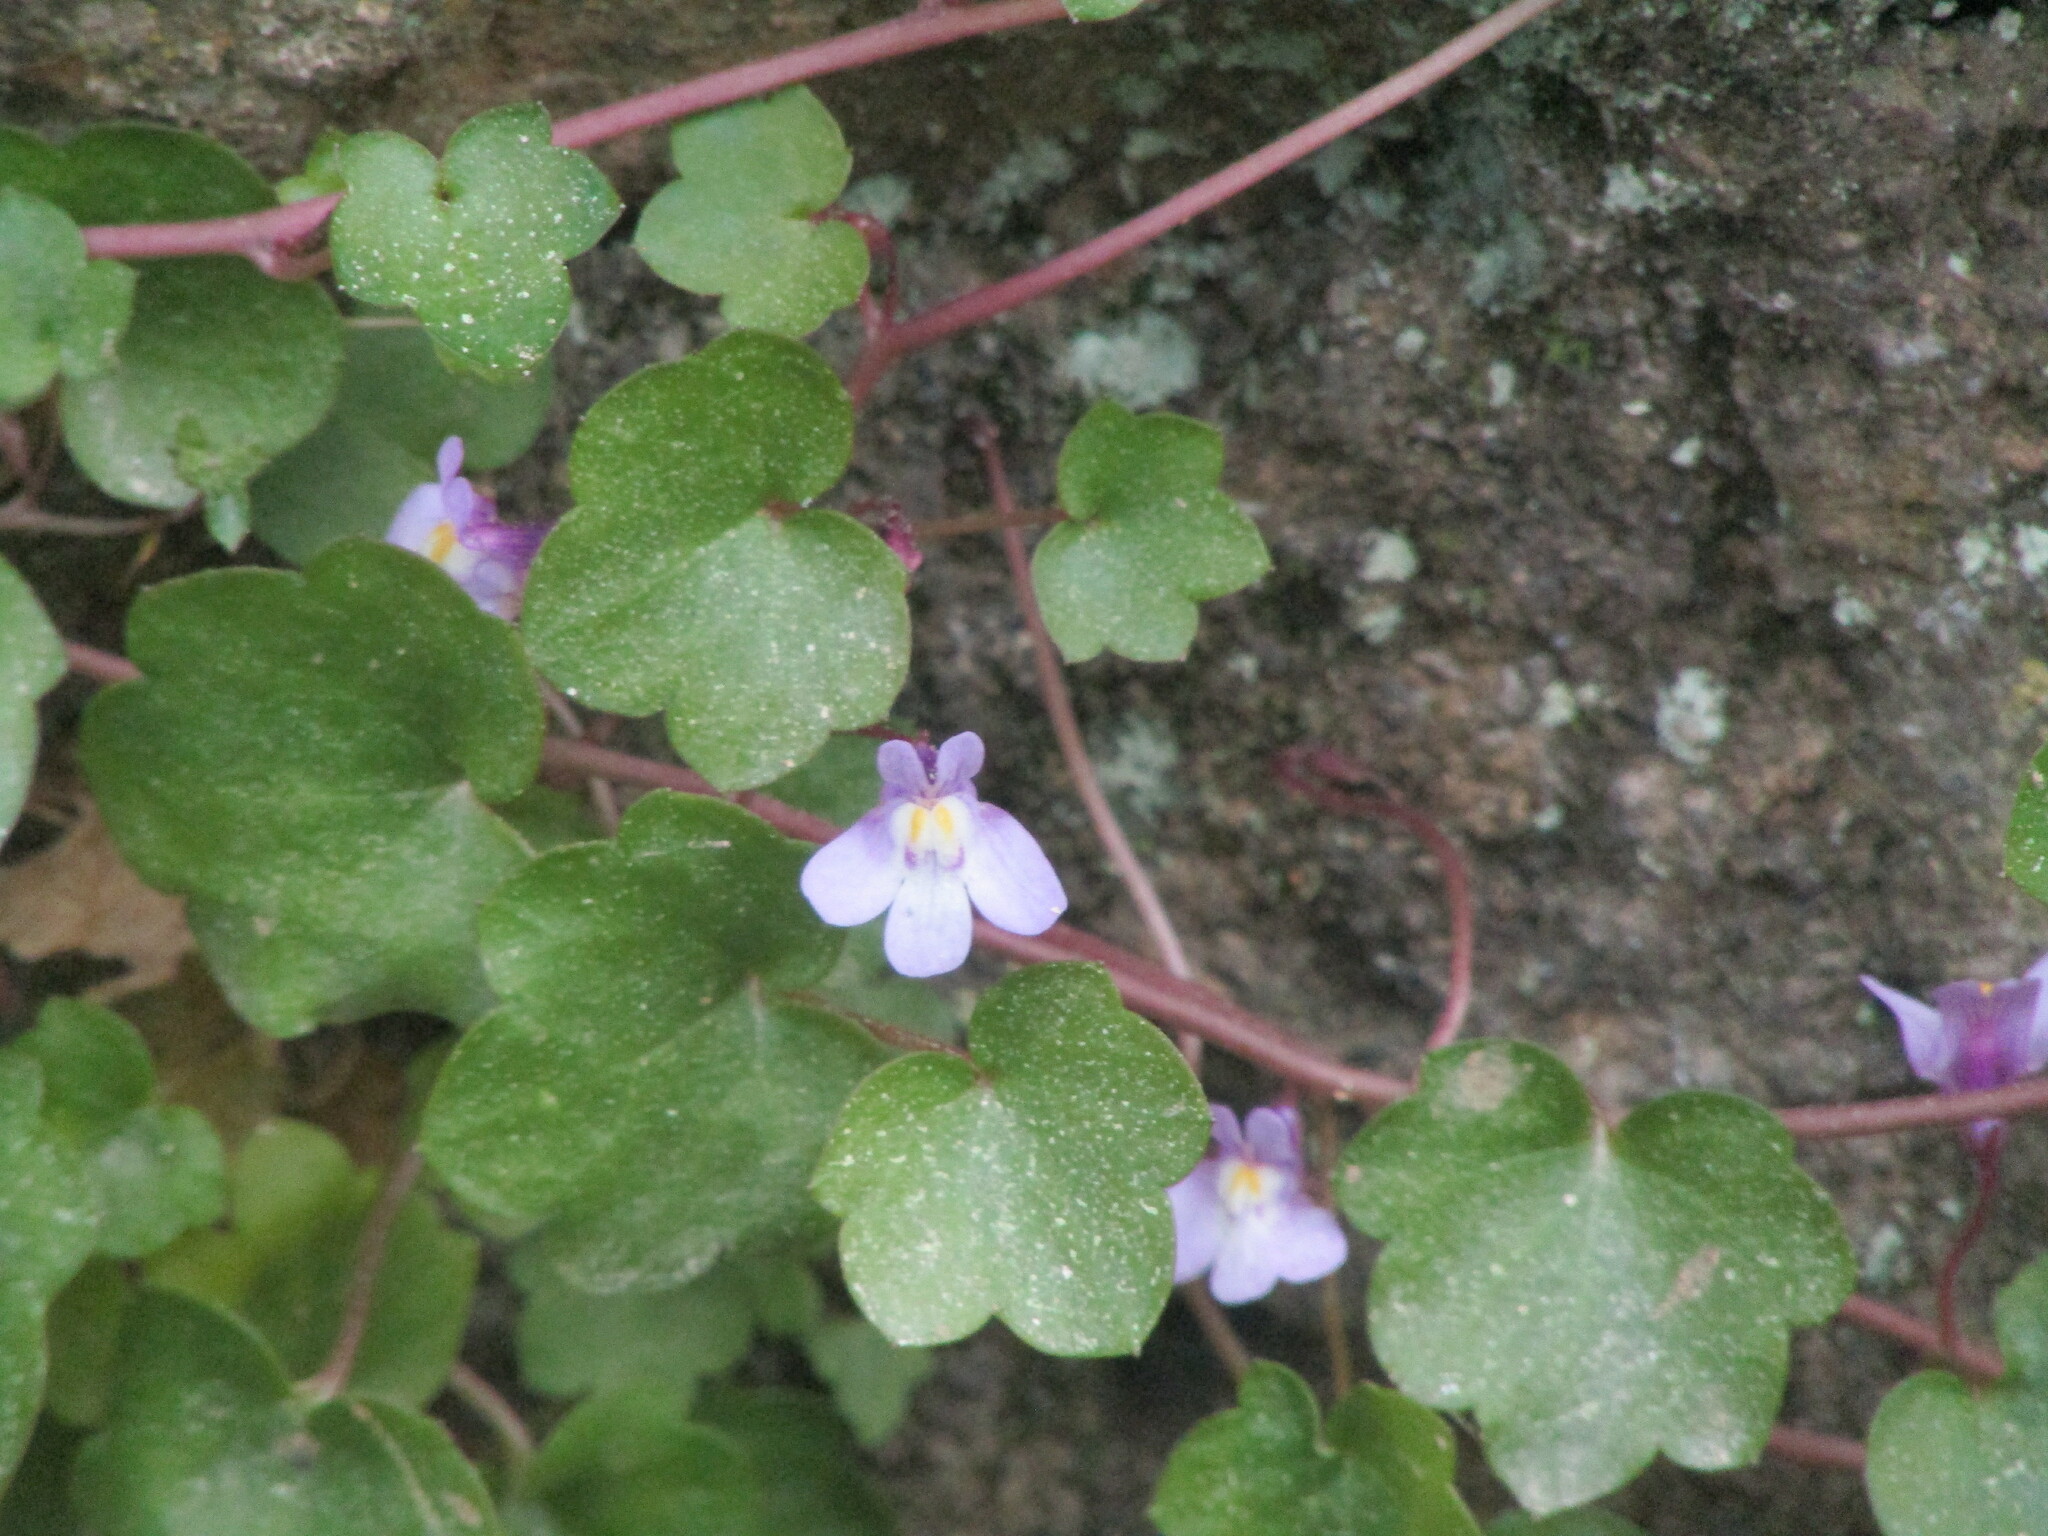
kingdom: Plantae
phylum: Tracheophyta
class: Magnoliopsida
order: Lamiales
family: Plantaginaceae
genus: Cymbalaria
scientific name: Cymbalaria muralis
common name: Ivy-leaved toadflax
